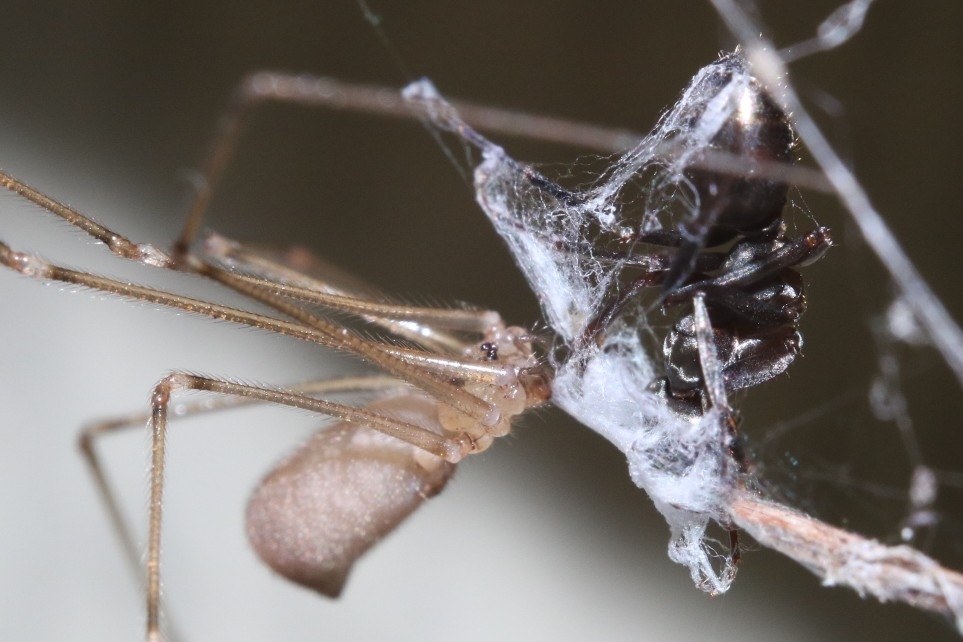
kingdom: Animalia
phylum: Arthropoda
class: Arachnida
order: Araneae
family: Pholcidae
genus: Pholcus
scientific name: Pholcus phalangioides
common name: Longbodied cellar spider
